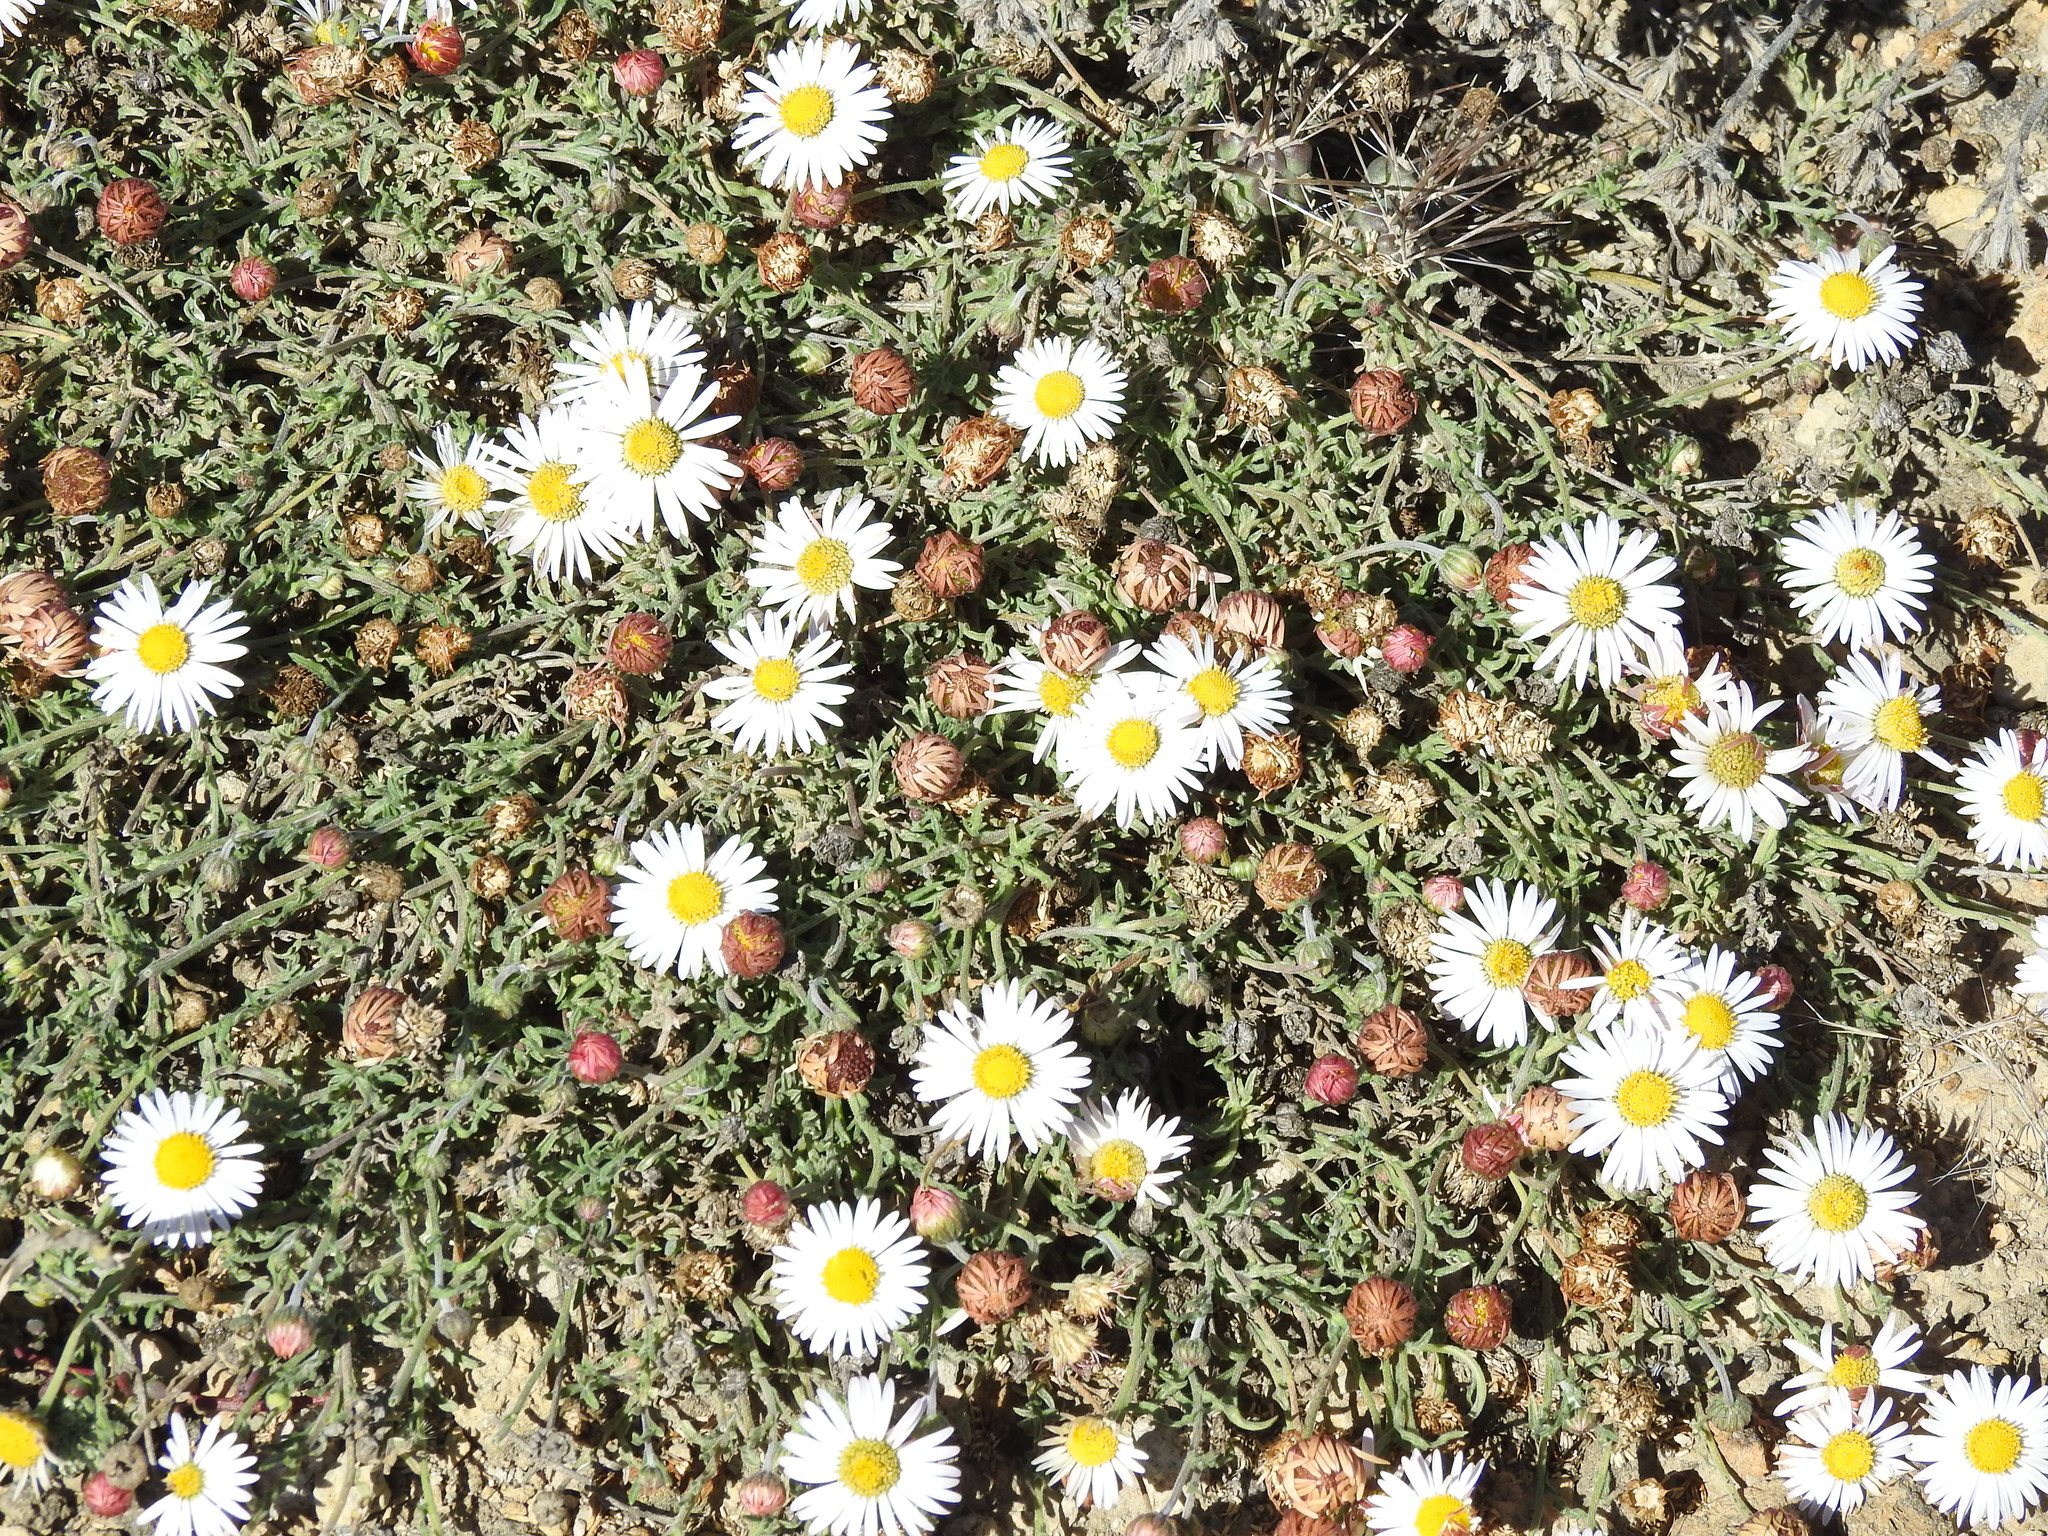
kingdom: Plantae
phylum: Tracheophyta
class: Magnoliopsida
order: Asterales
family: Asteraceae
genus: Aphanostephus
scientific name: Aphanostephus ramosissimus
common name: Plains lazy daisy
